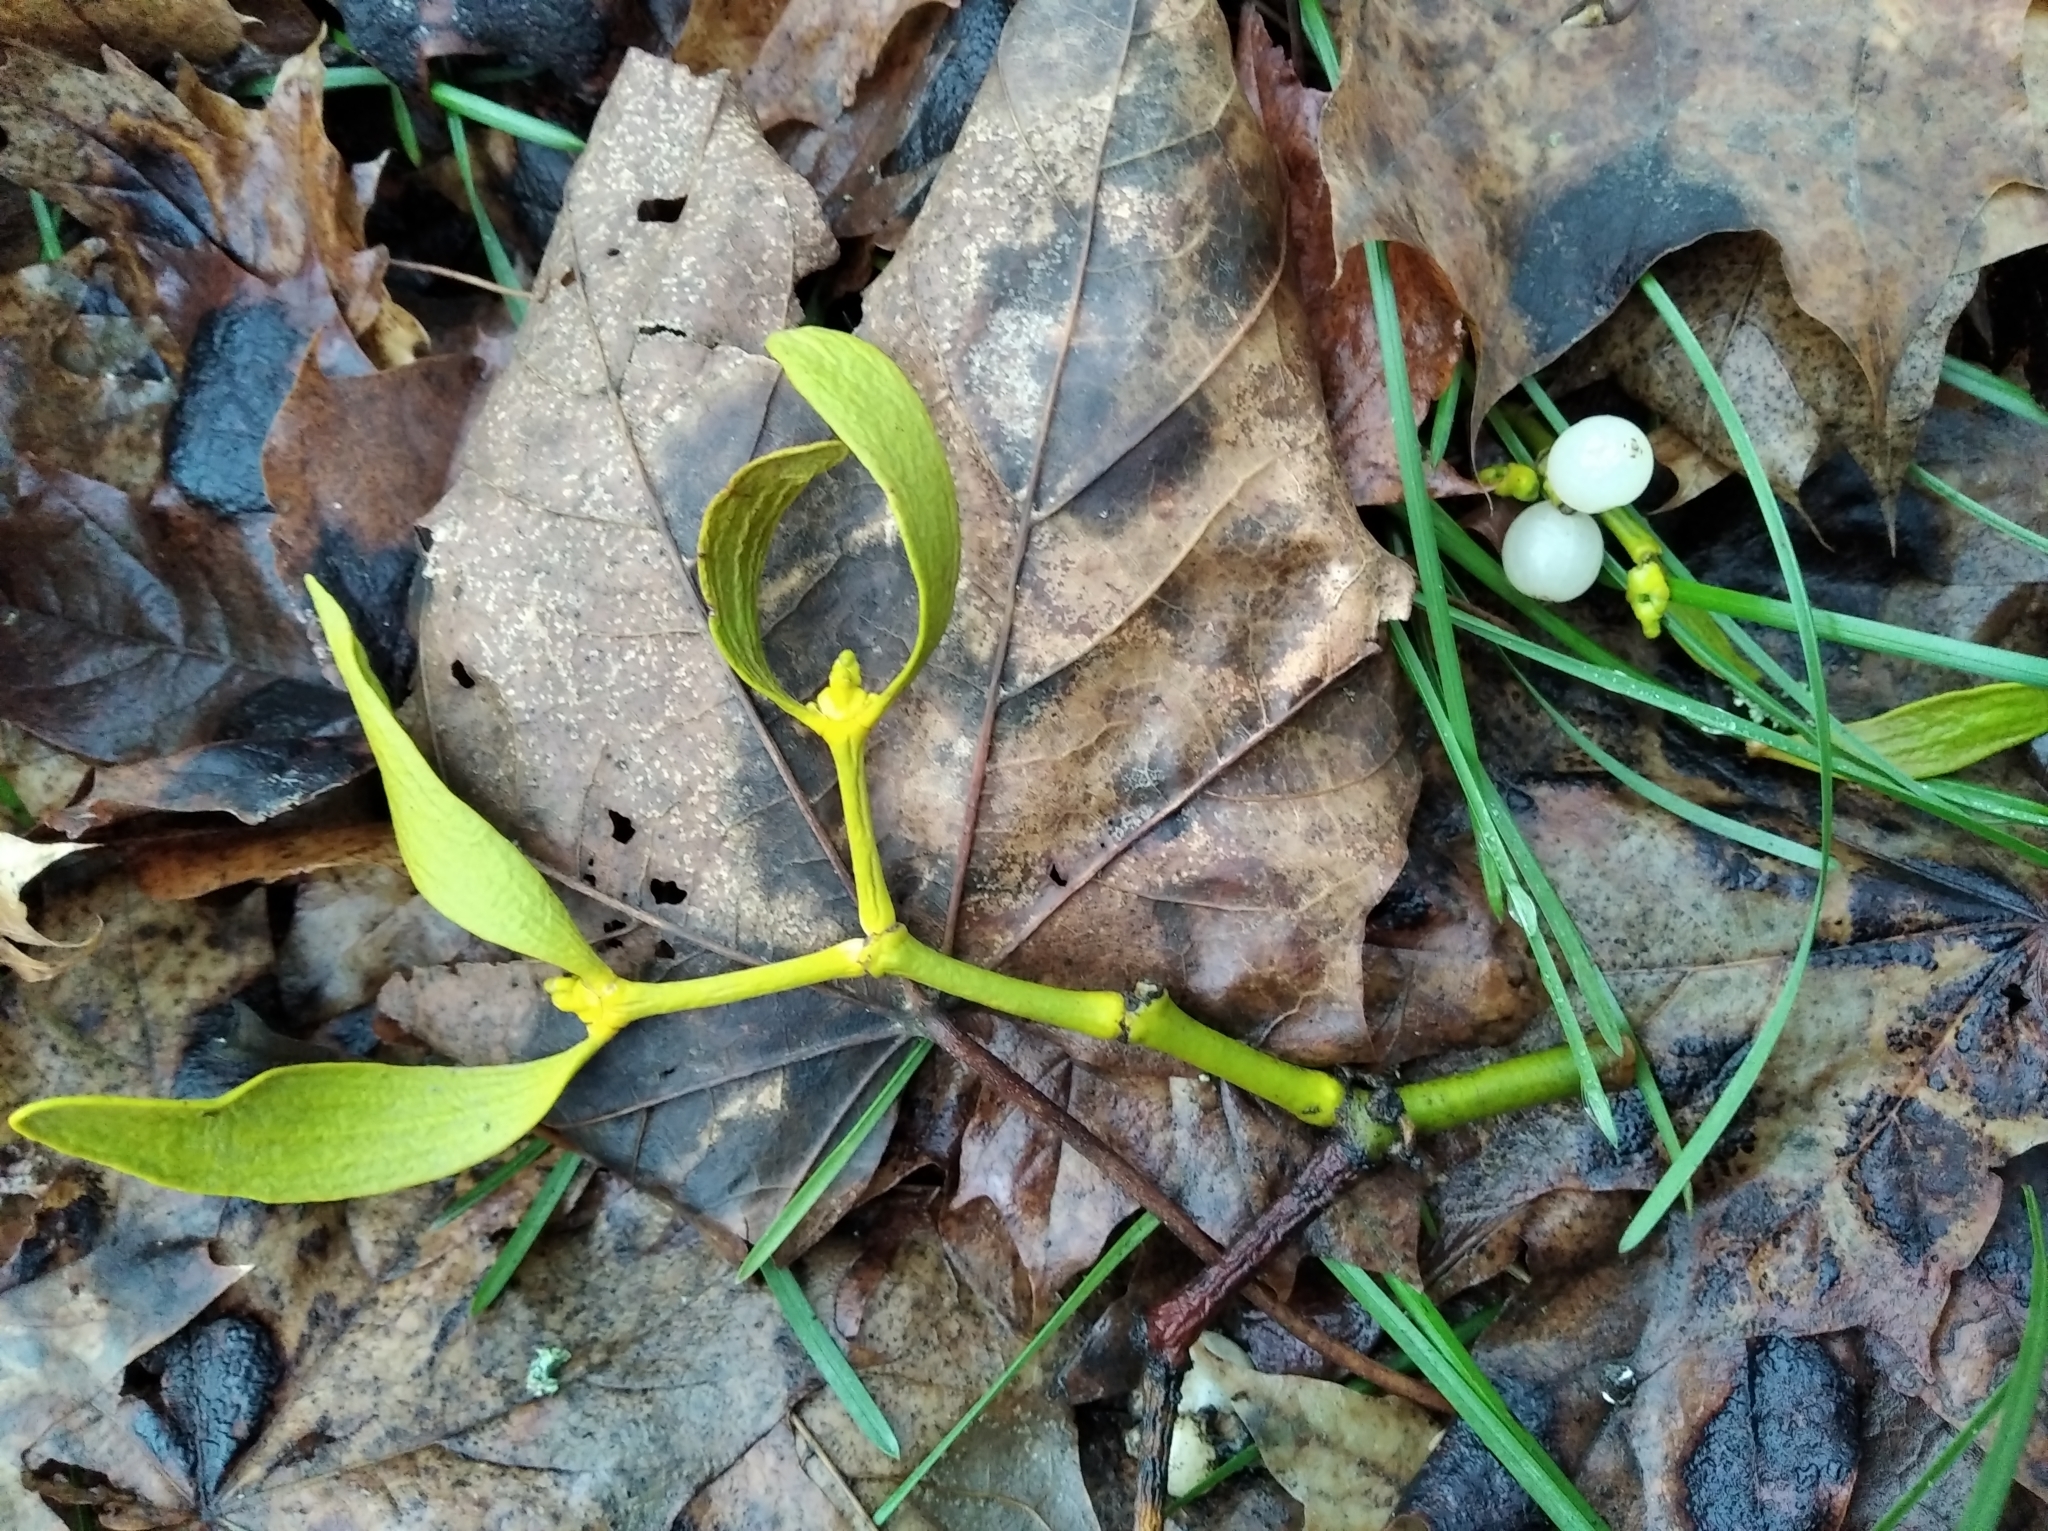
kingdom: Plantae
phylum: Tracheophyta
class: Magnoliopsida
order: Santalales
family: Viscaceae
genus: Viscum
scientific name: Viscum album
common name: Mistletoe
